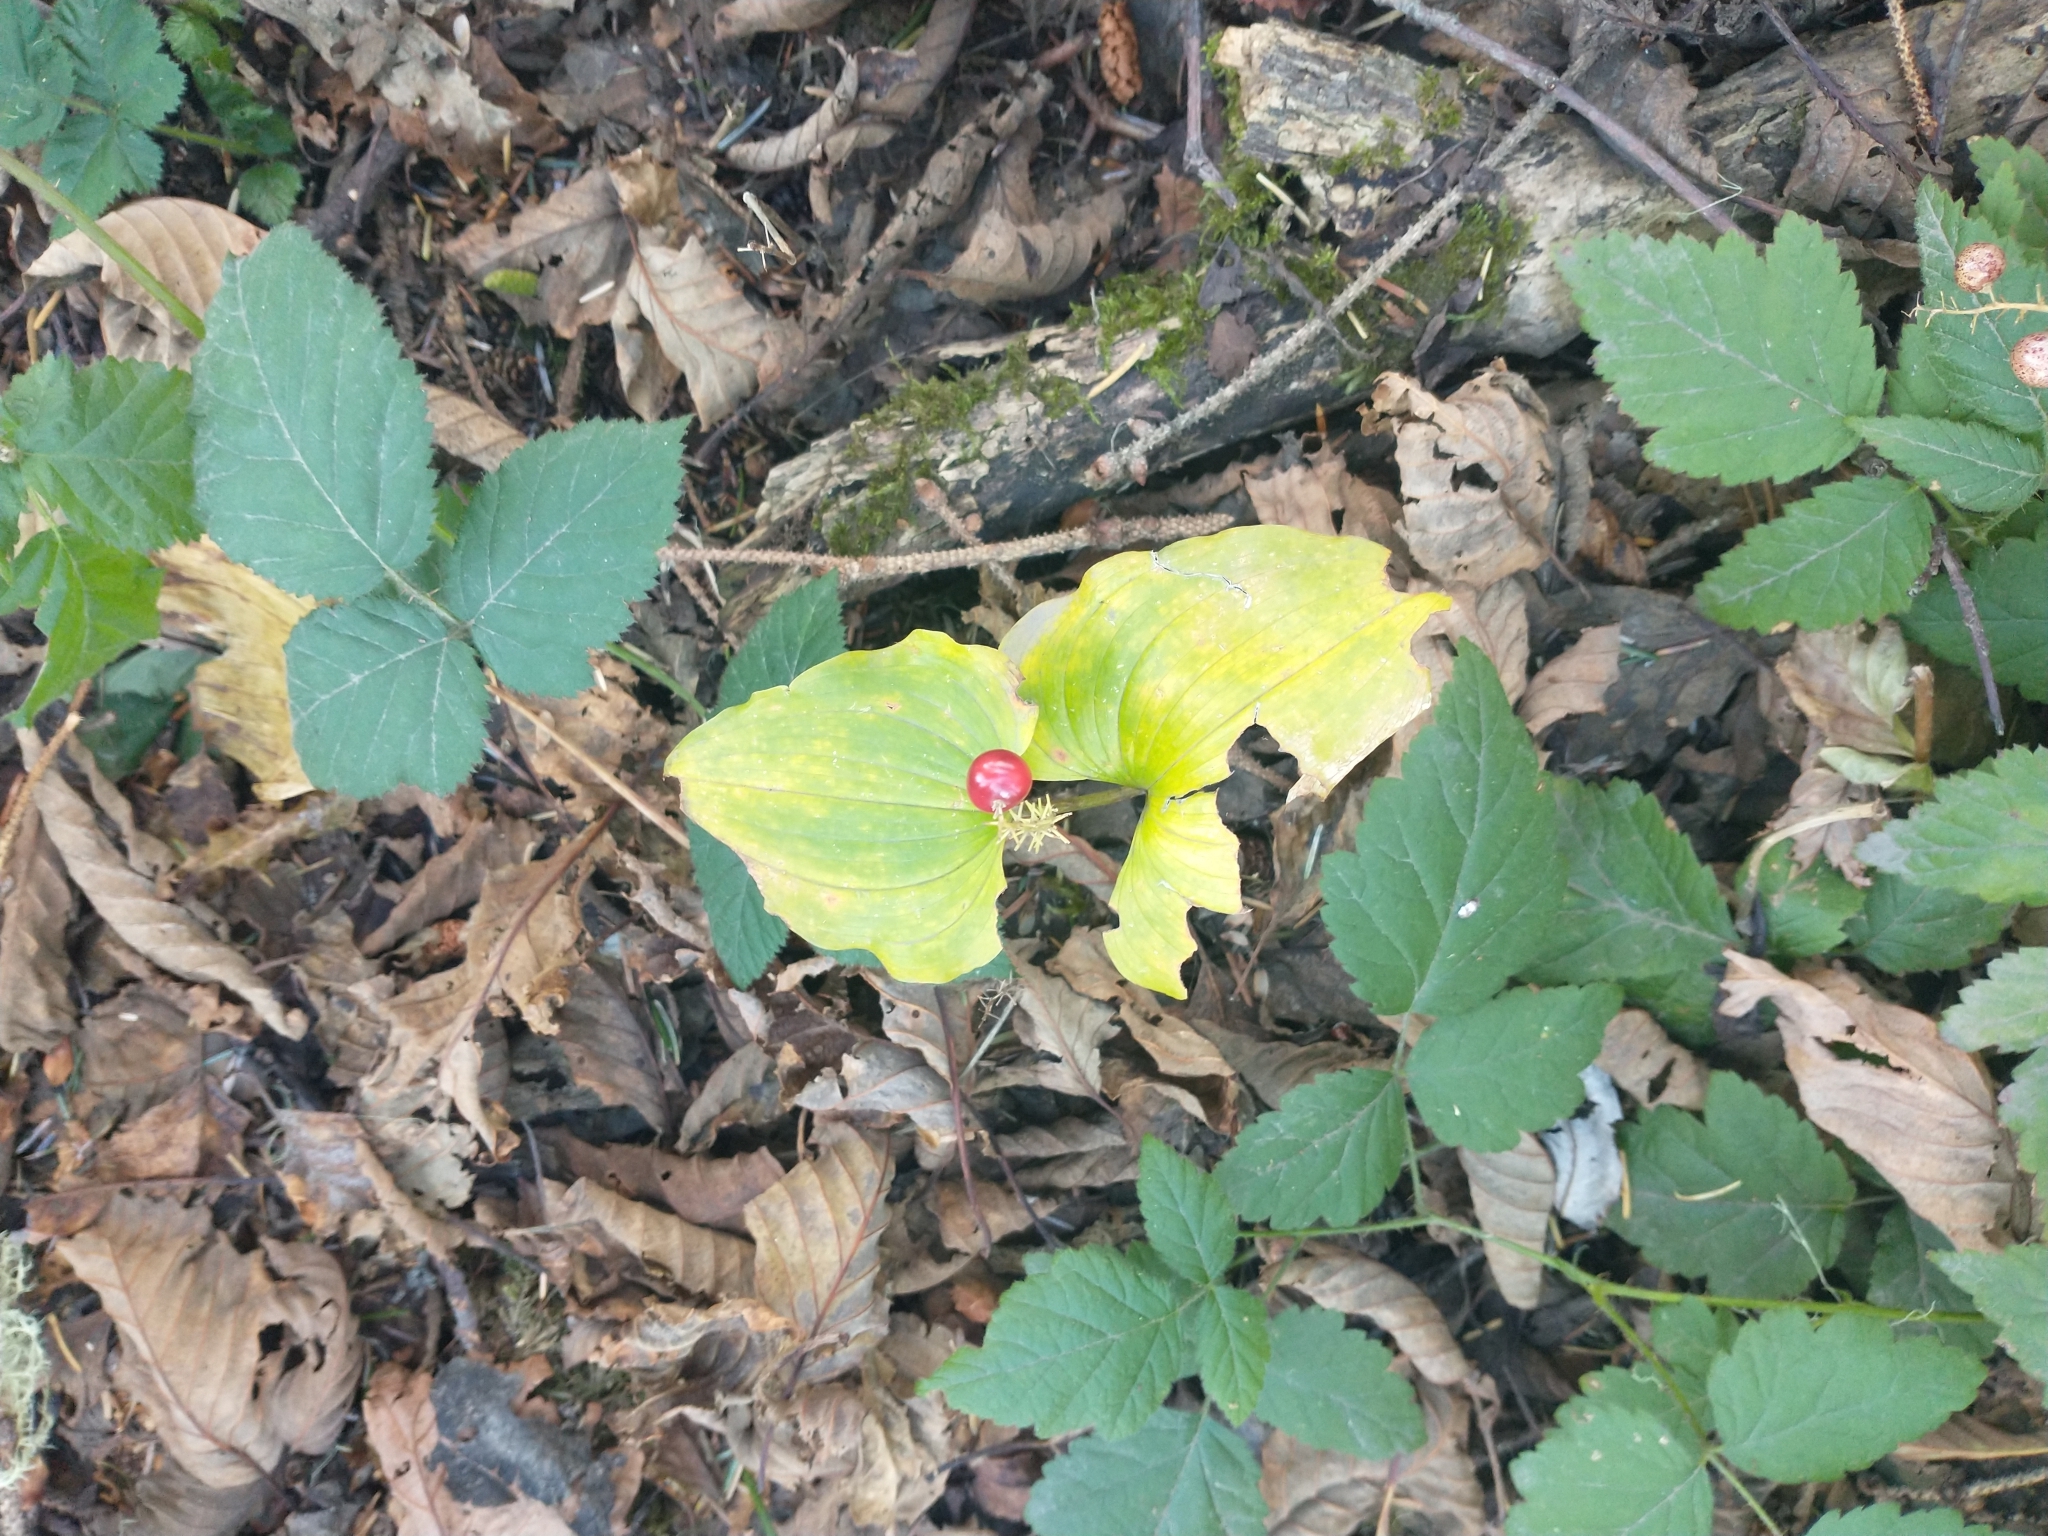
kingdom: Plantae
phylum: Tracheophyta
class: Liliopsida
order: Asparagales
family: Asparagaceae
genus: Maianthemum
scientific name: Maianthemum dilatatum
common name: False lily-of-the-valley
